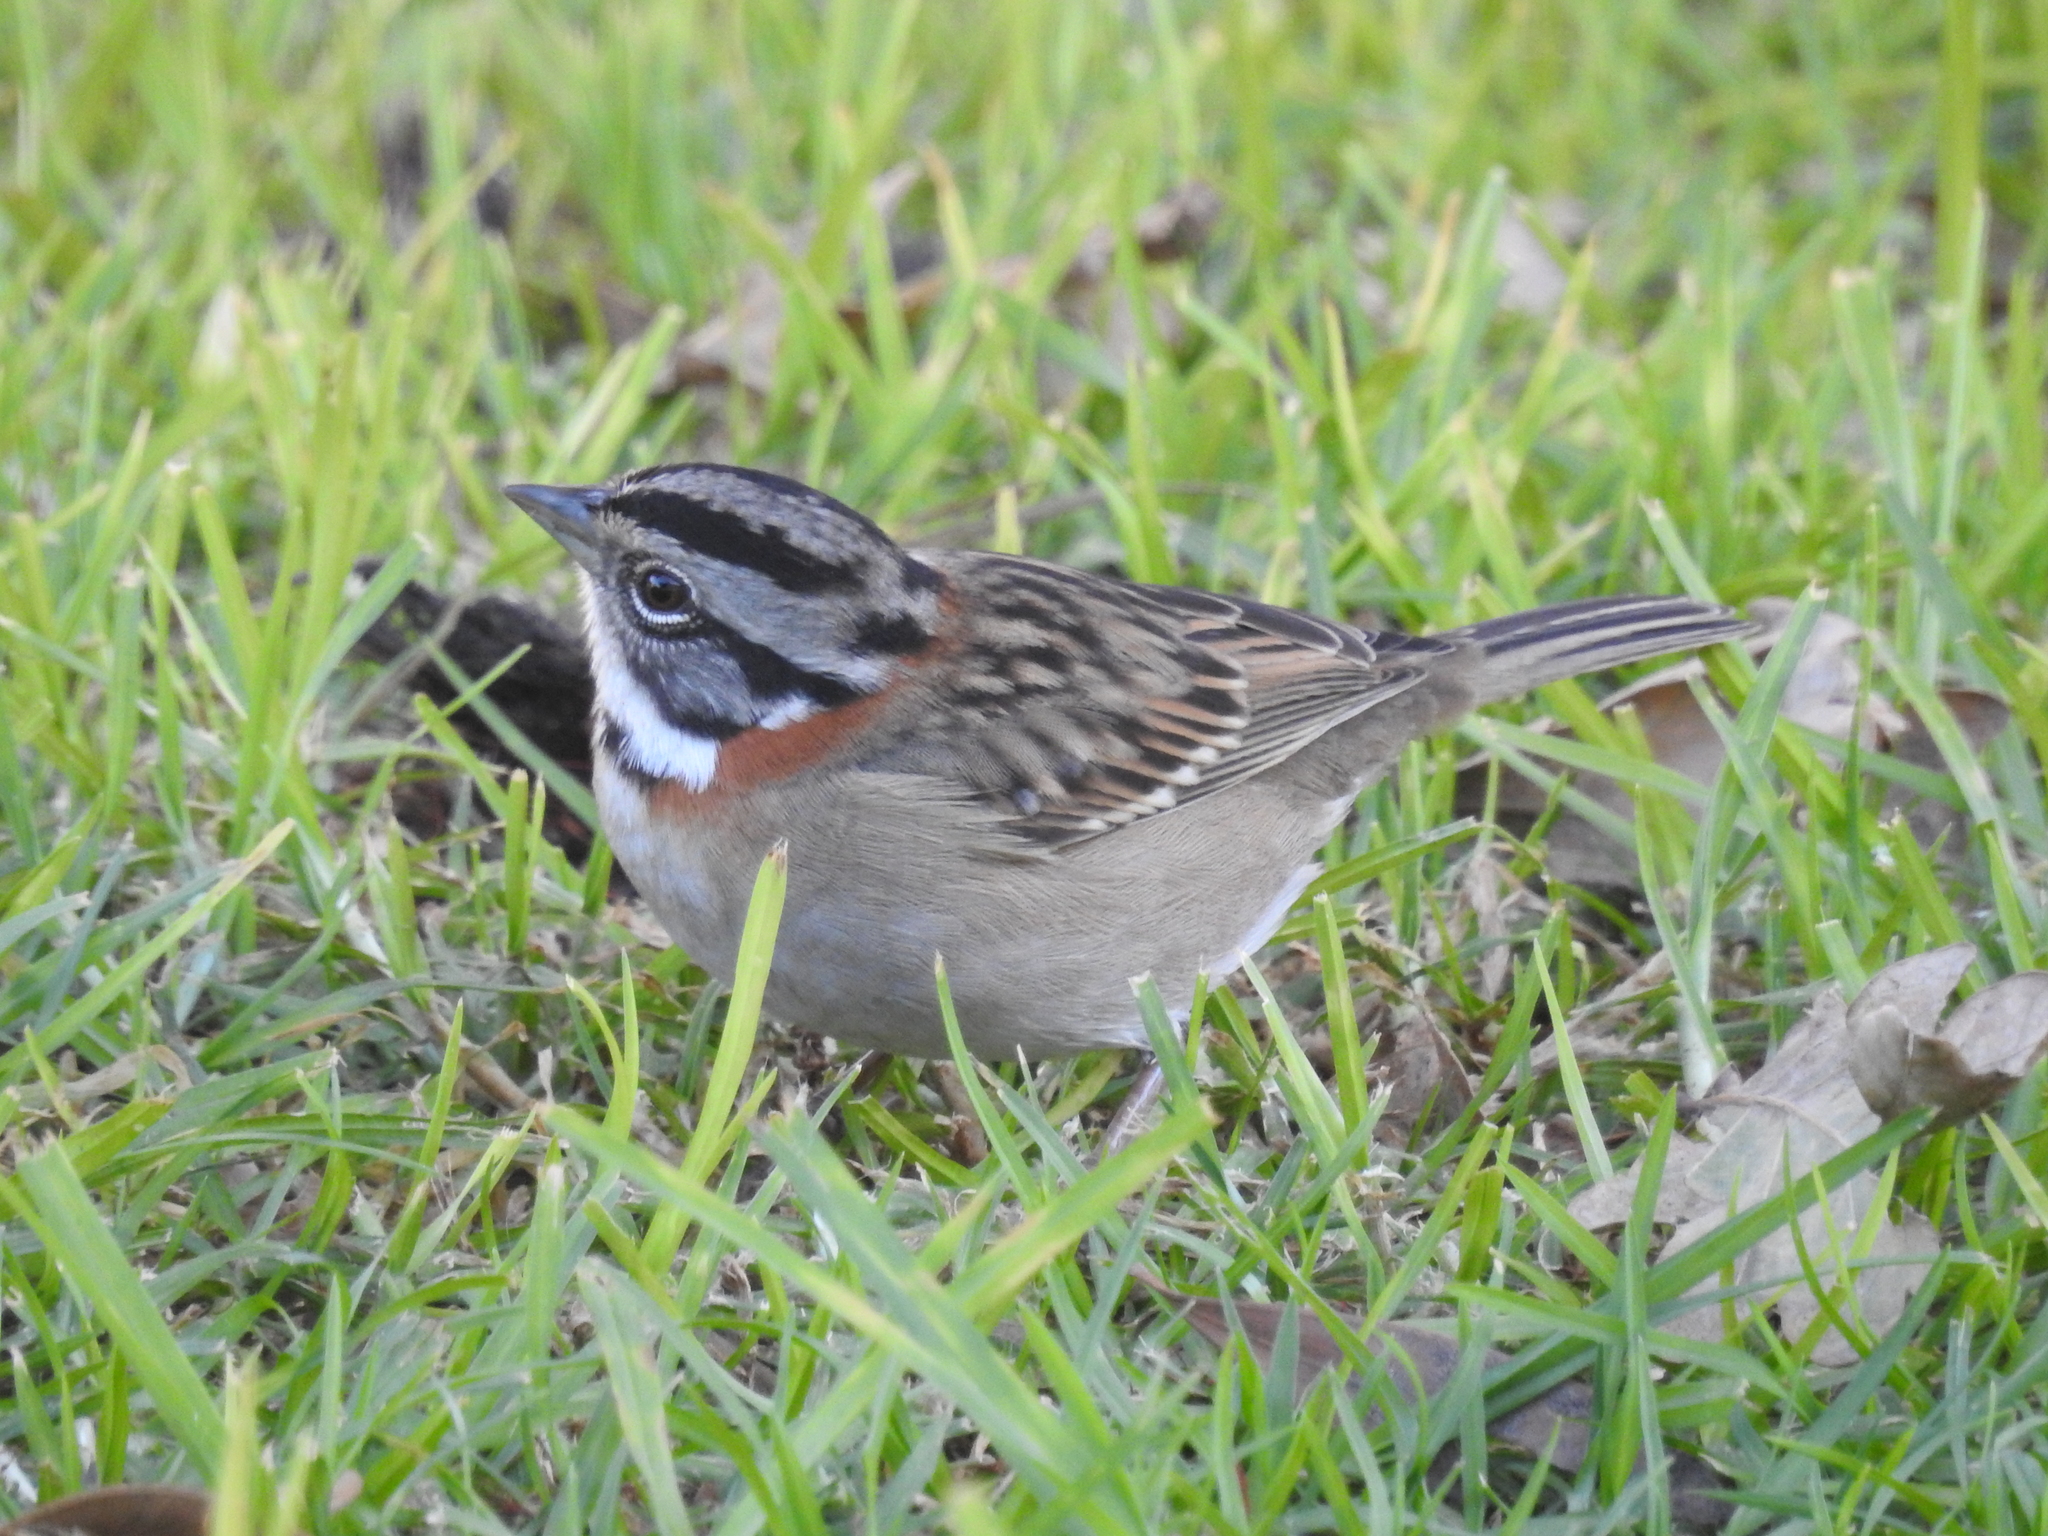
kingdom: Animalia
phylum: Chordata
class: Aves
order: Passeriformes
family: Passerellidae
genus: Zonotrichia
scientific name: Zonotrichia capensis
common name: Rufous-collared sparrow
